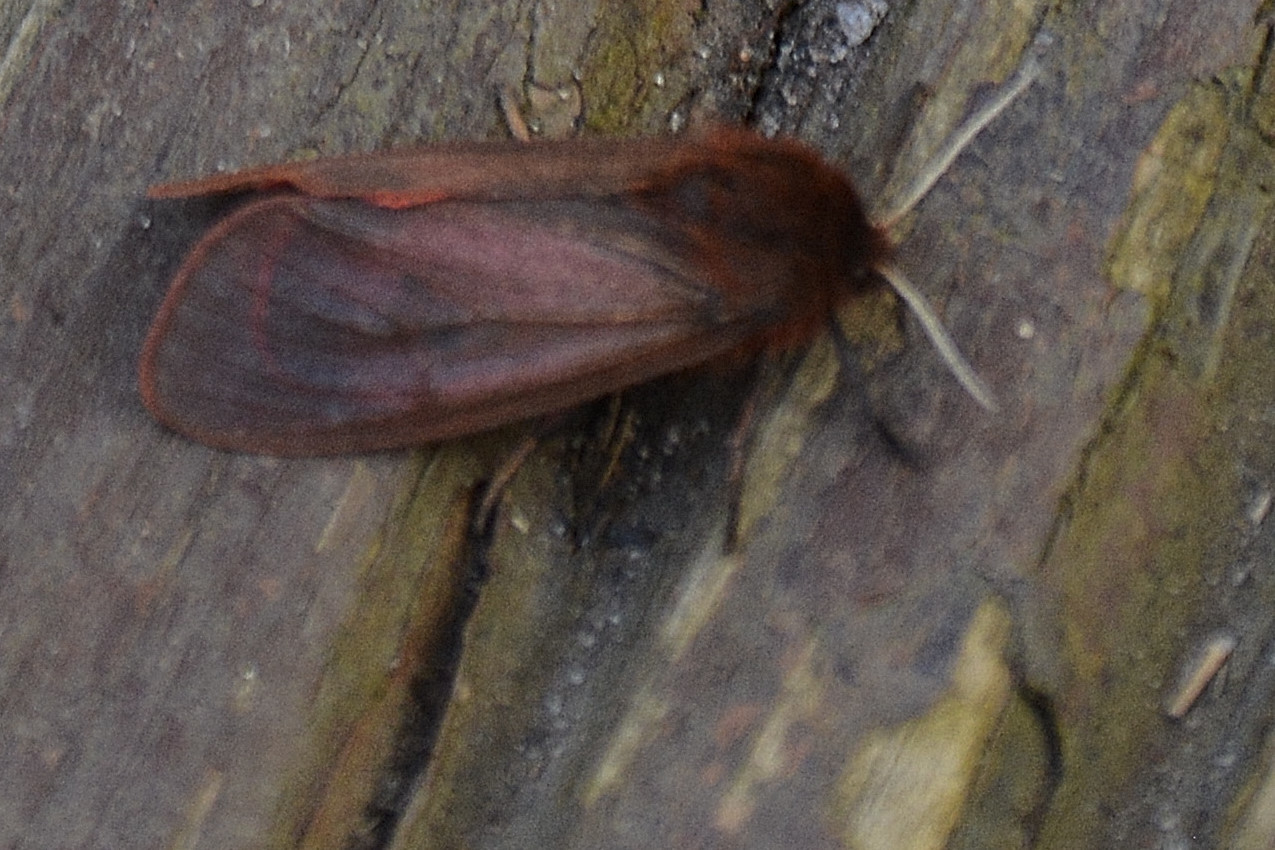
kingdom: Animalia
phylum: Arthropoda
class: Insecta
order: Lepidoptera
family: Erebidae
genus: Phragmatobia
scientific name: Phragmatobia fuliginosa
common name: Ruby tiger
